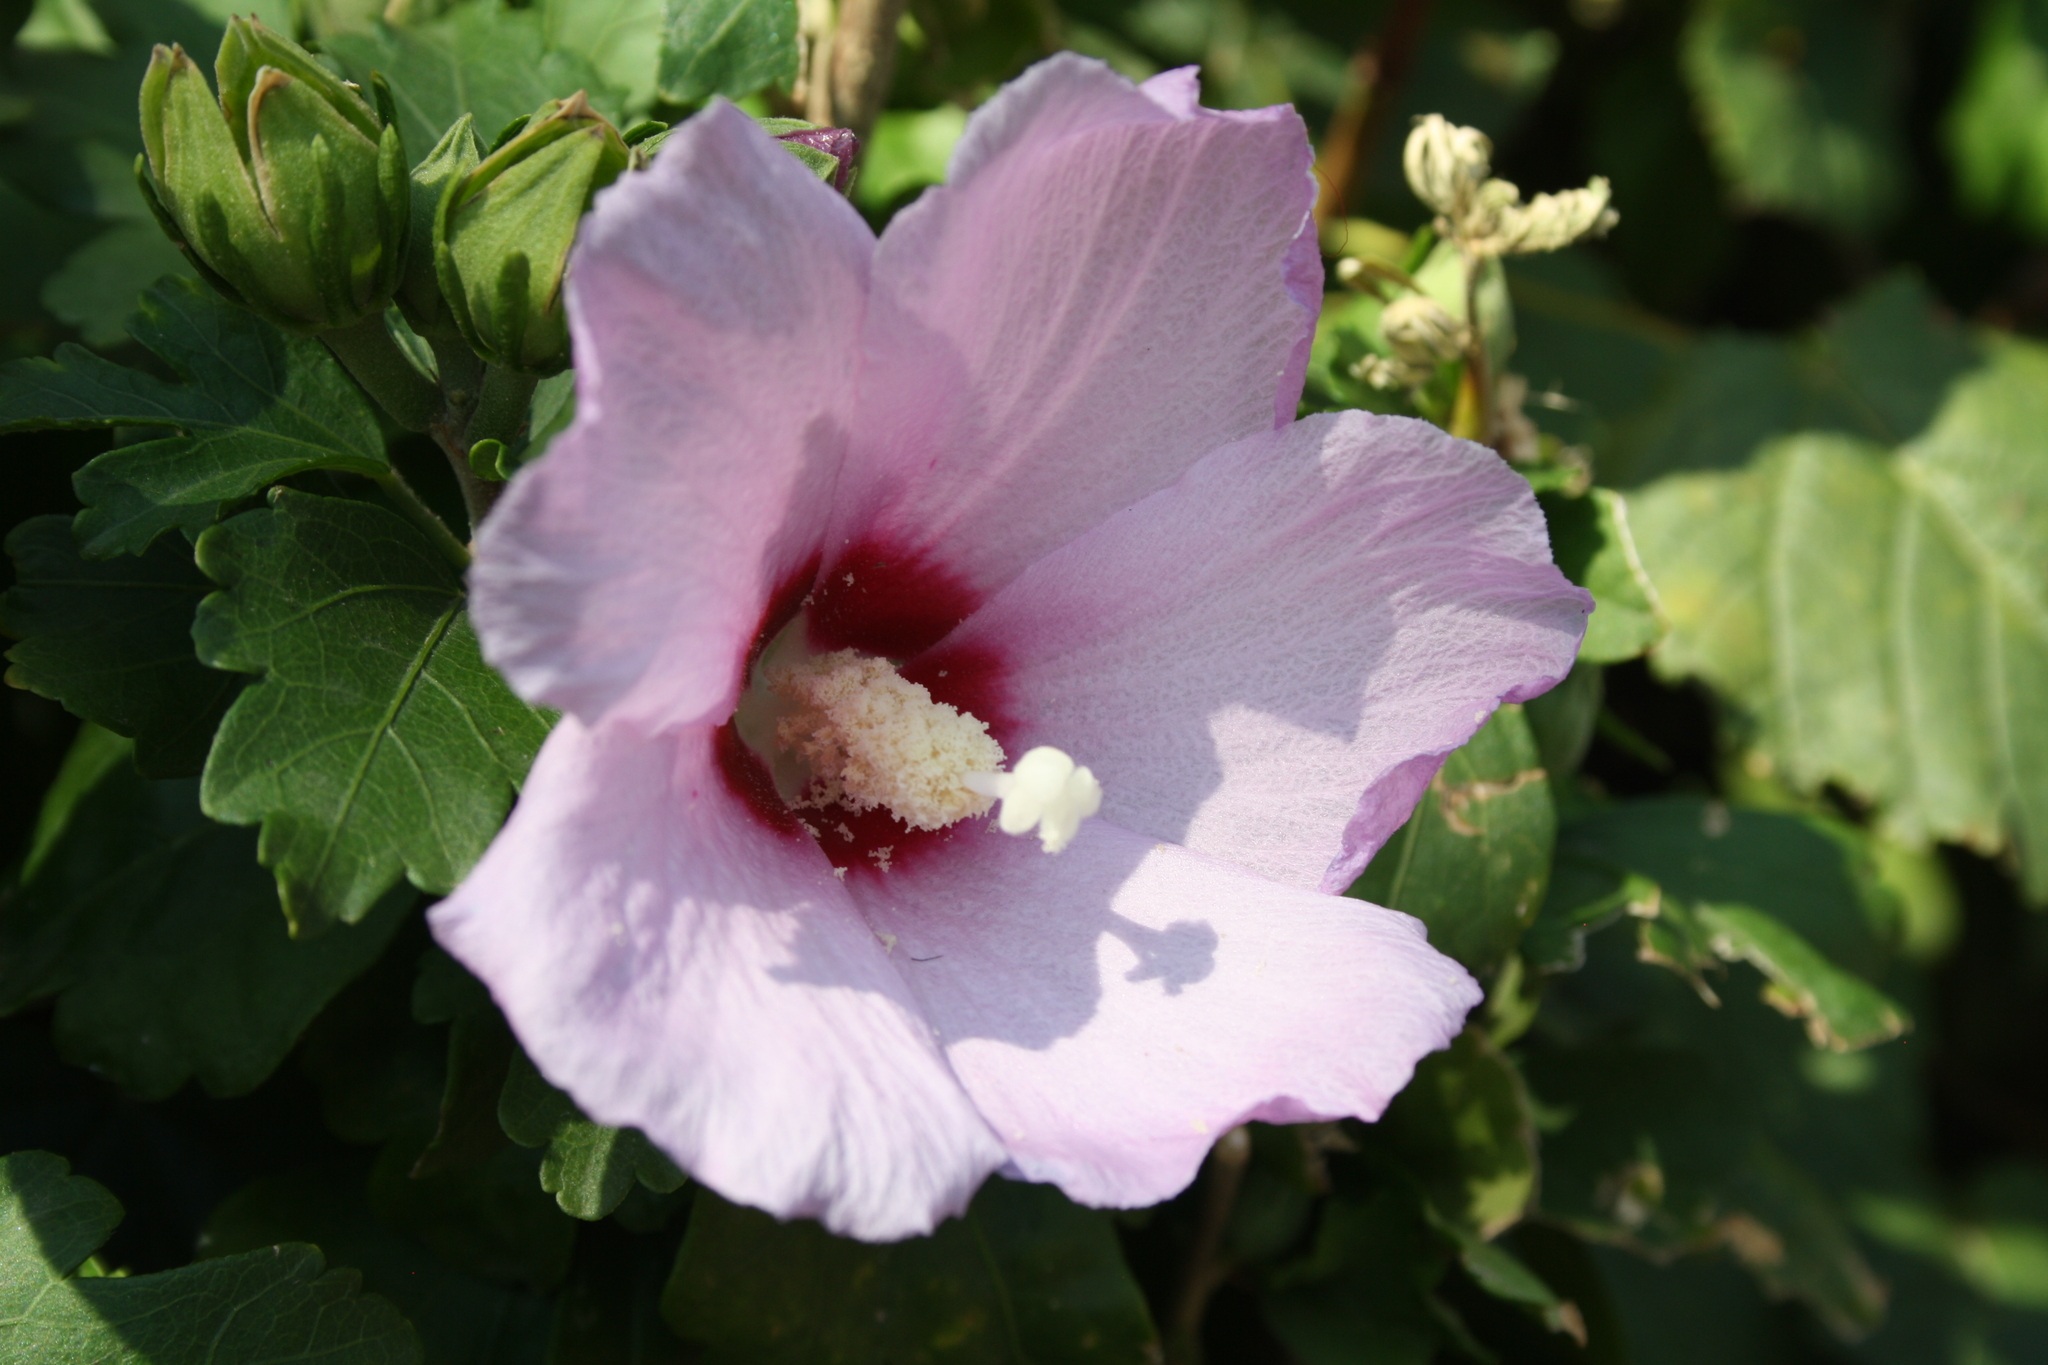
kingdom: Plantae
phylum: Tracheophyta
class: Magnoliopsida
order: Malvales
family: Malvaceae
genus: Hibiscus
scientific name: Hibiscus syriacus
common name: Syrian ketmia
